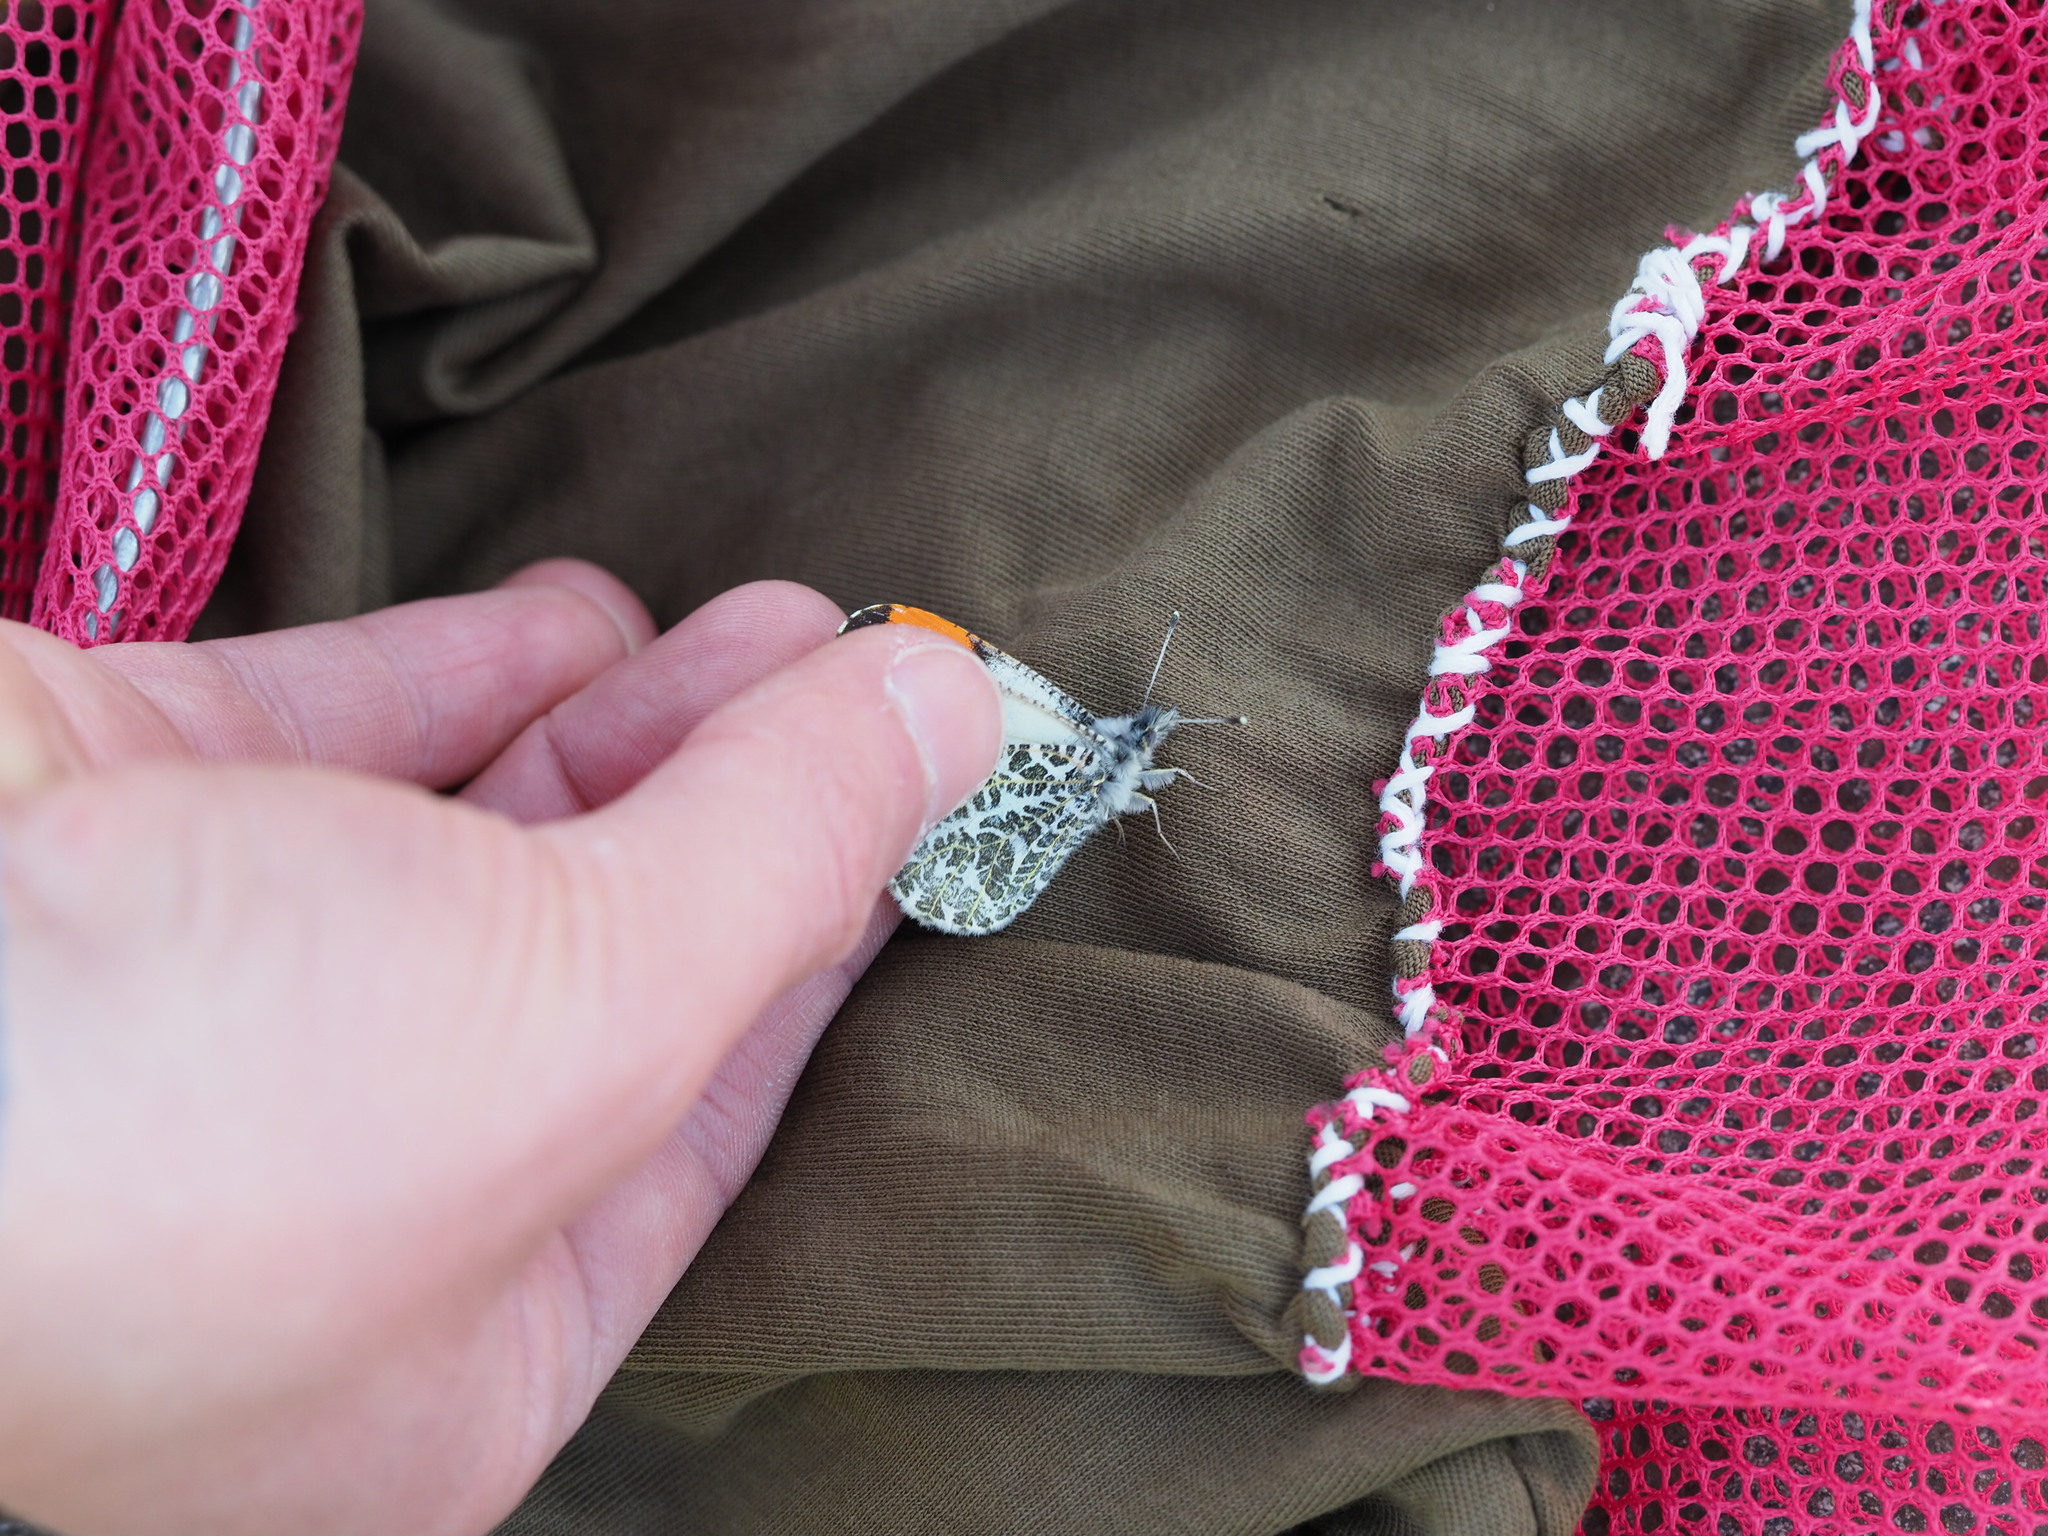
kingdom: Animalia
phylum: Arthropoda
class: Insecta
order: Lepidoptera
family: Pieridae
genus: Anthocharis
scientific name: Anthocharis julia
